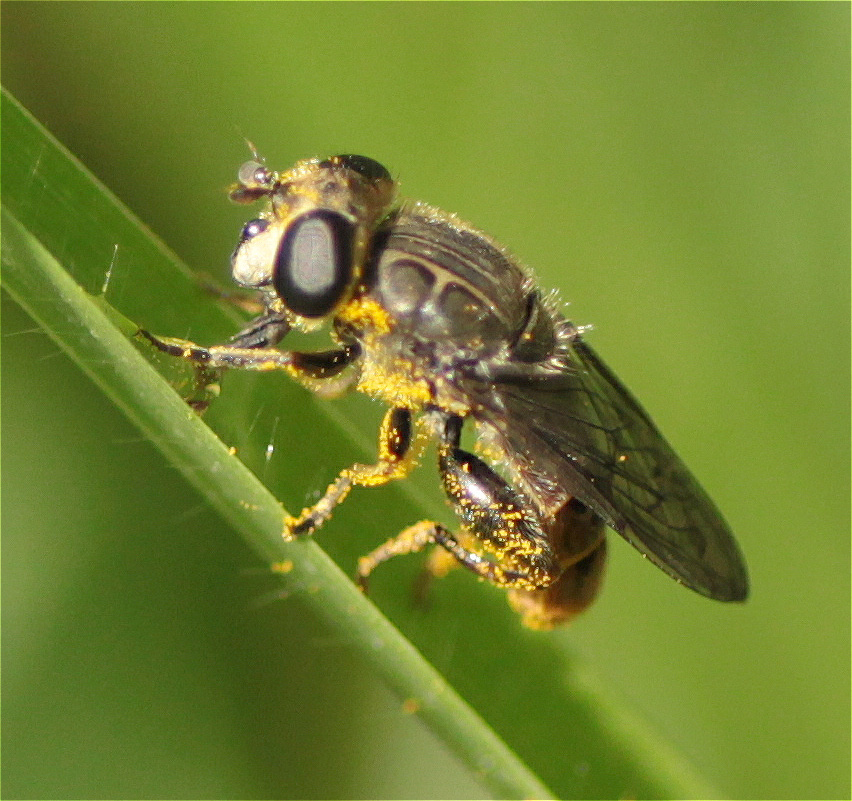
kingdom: Animalia
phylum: Arthropoda
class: Insecta
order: Diptera
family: Syrphidae
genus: Asemosyrphus
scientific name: Asemosyrphus
